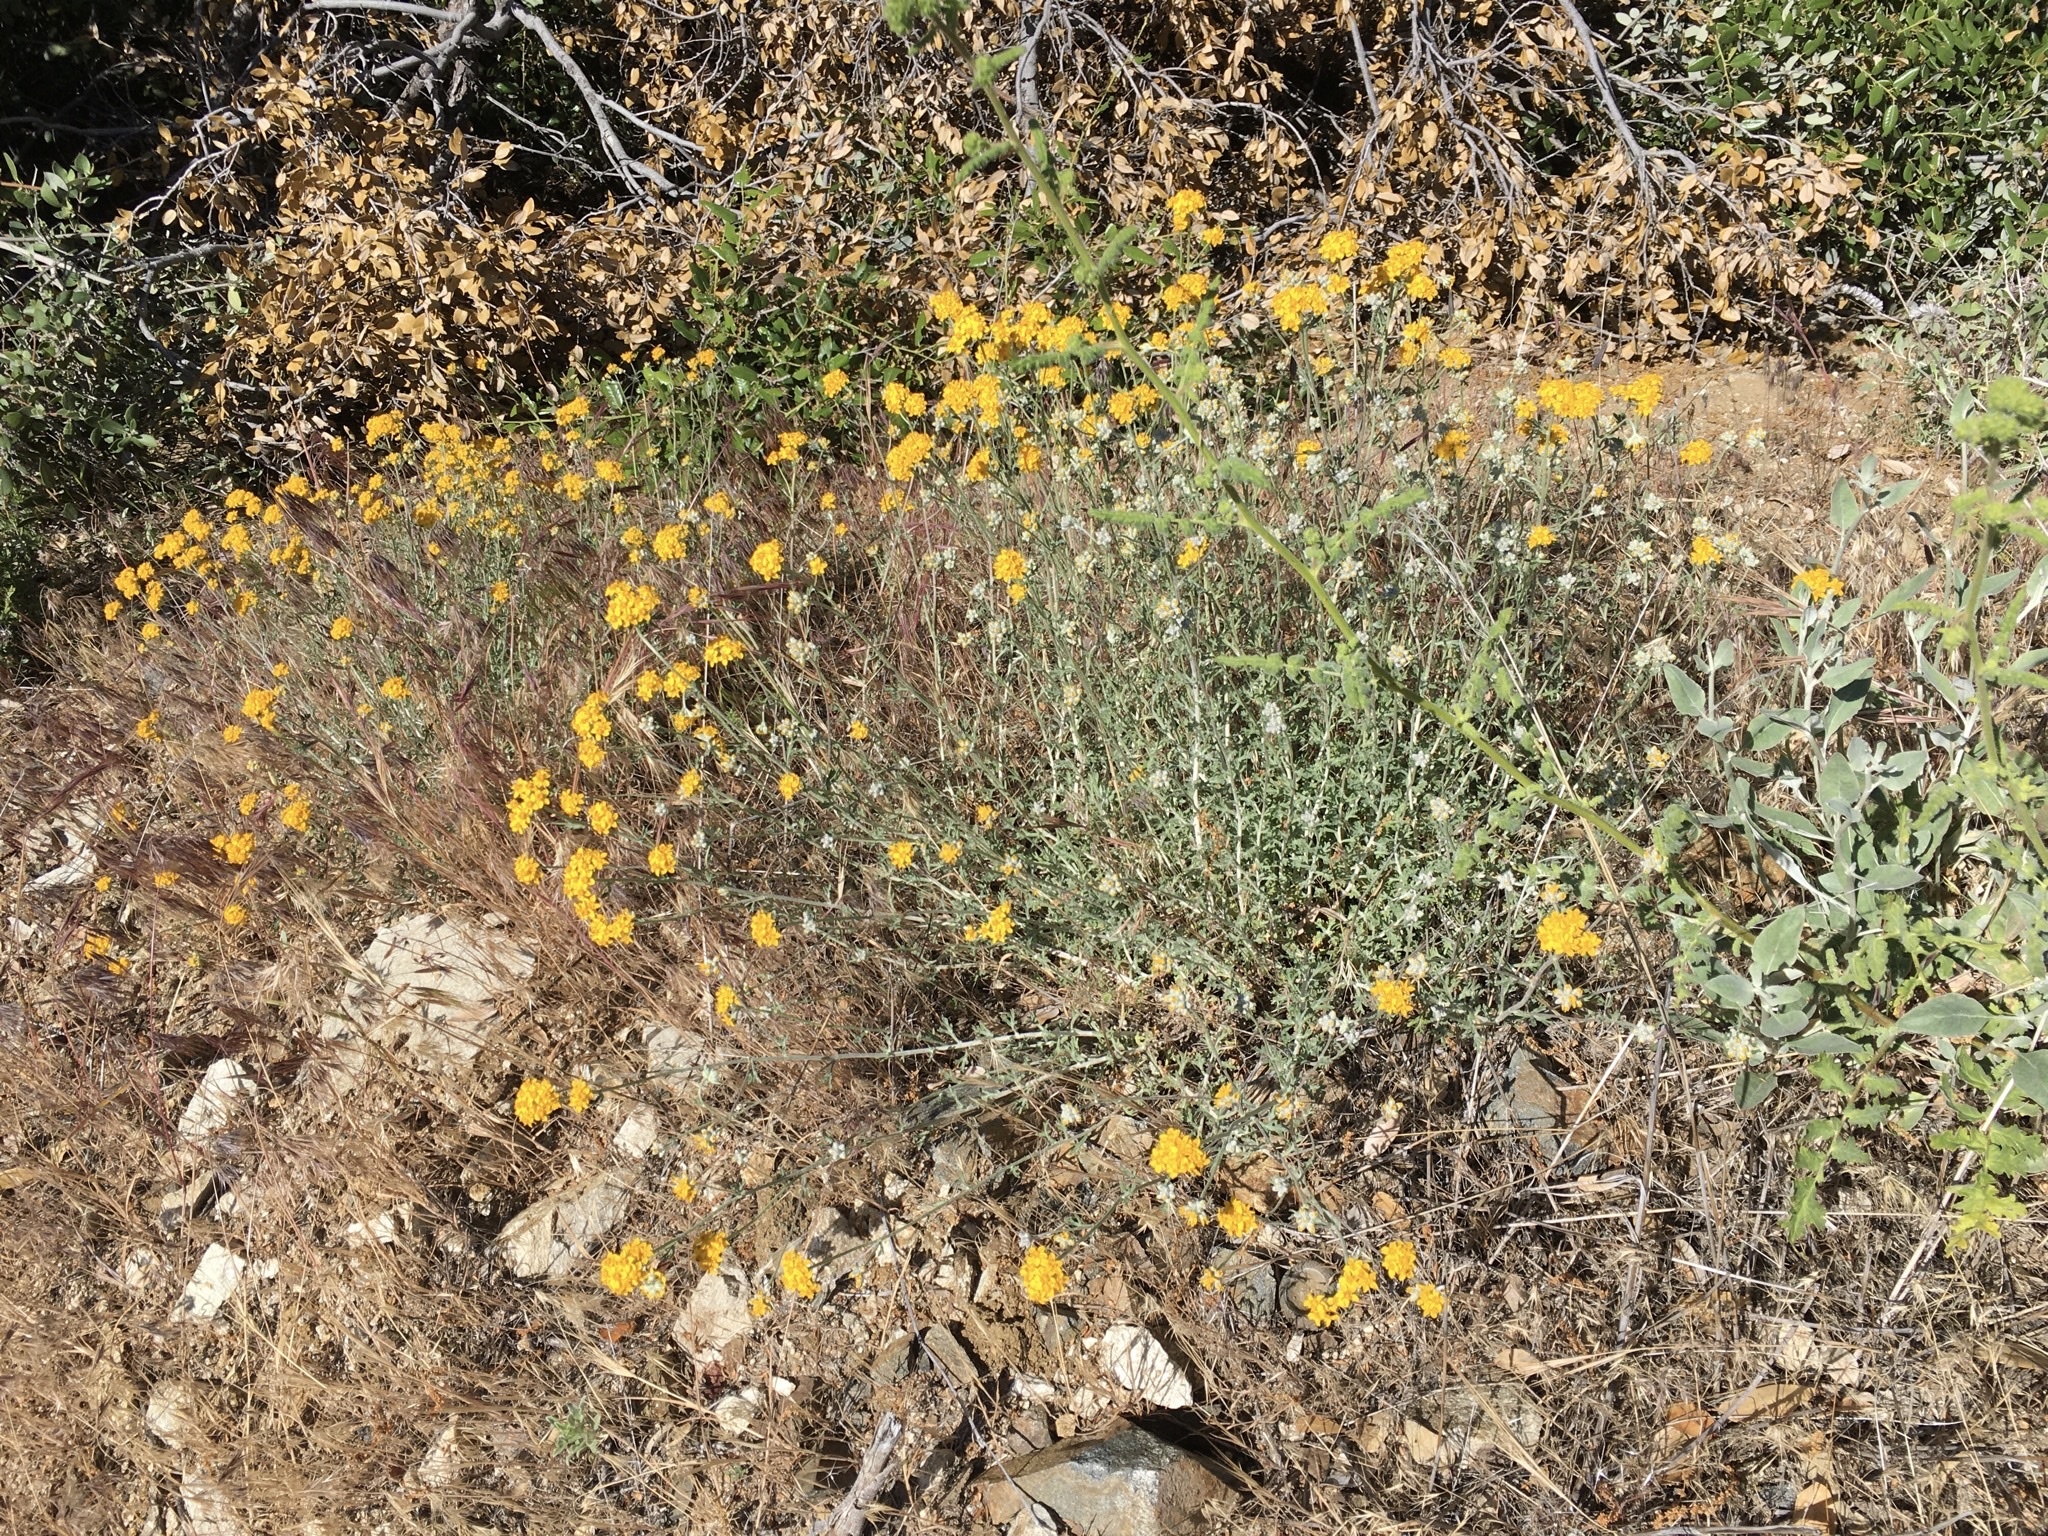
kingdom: Plantae
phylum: Tracheophyta
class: Magnoliopsida
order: Asterales
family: Asteraceae
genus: Eriophyllum
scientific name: Eriophyllum confertiflorum
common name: Golden-yarrow
